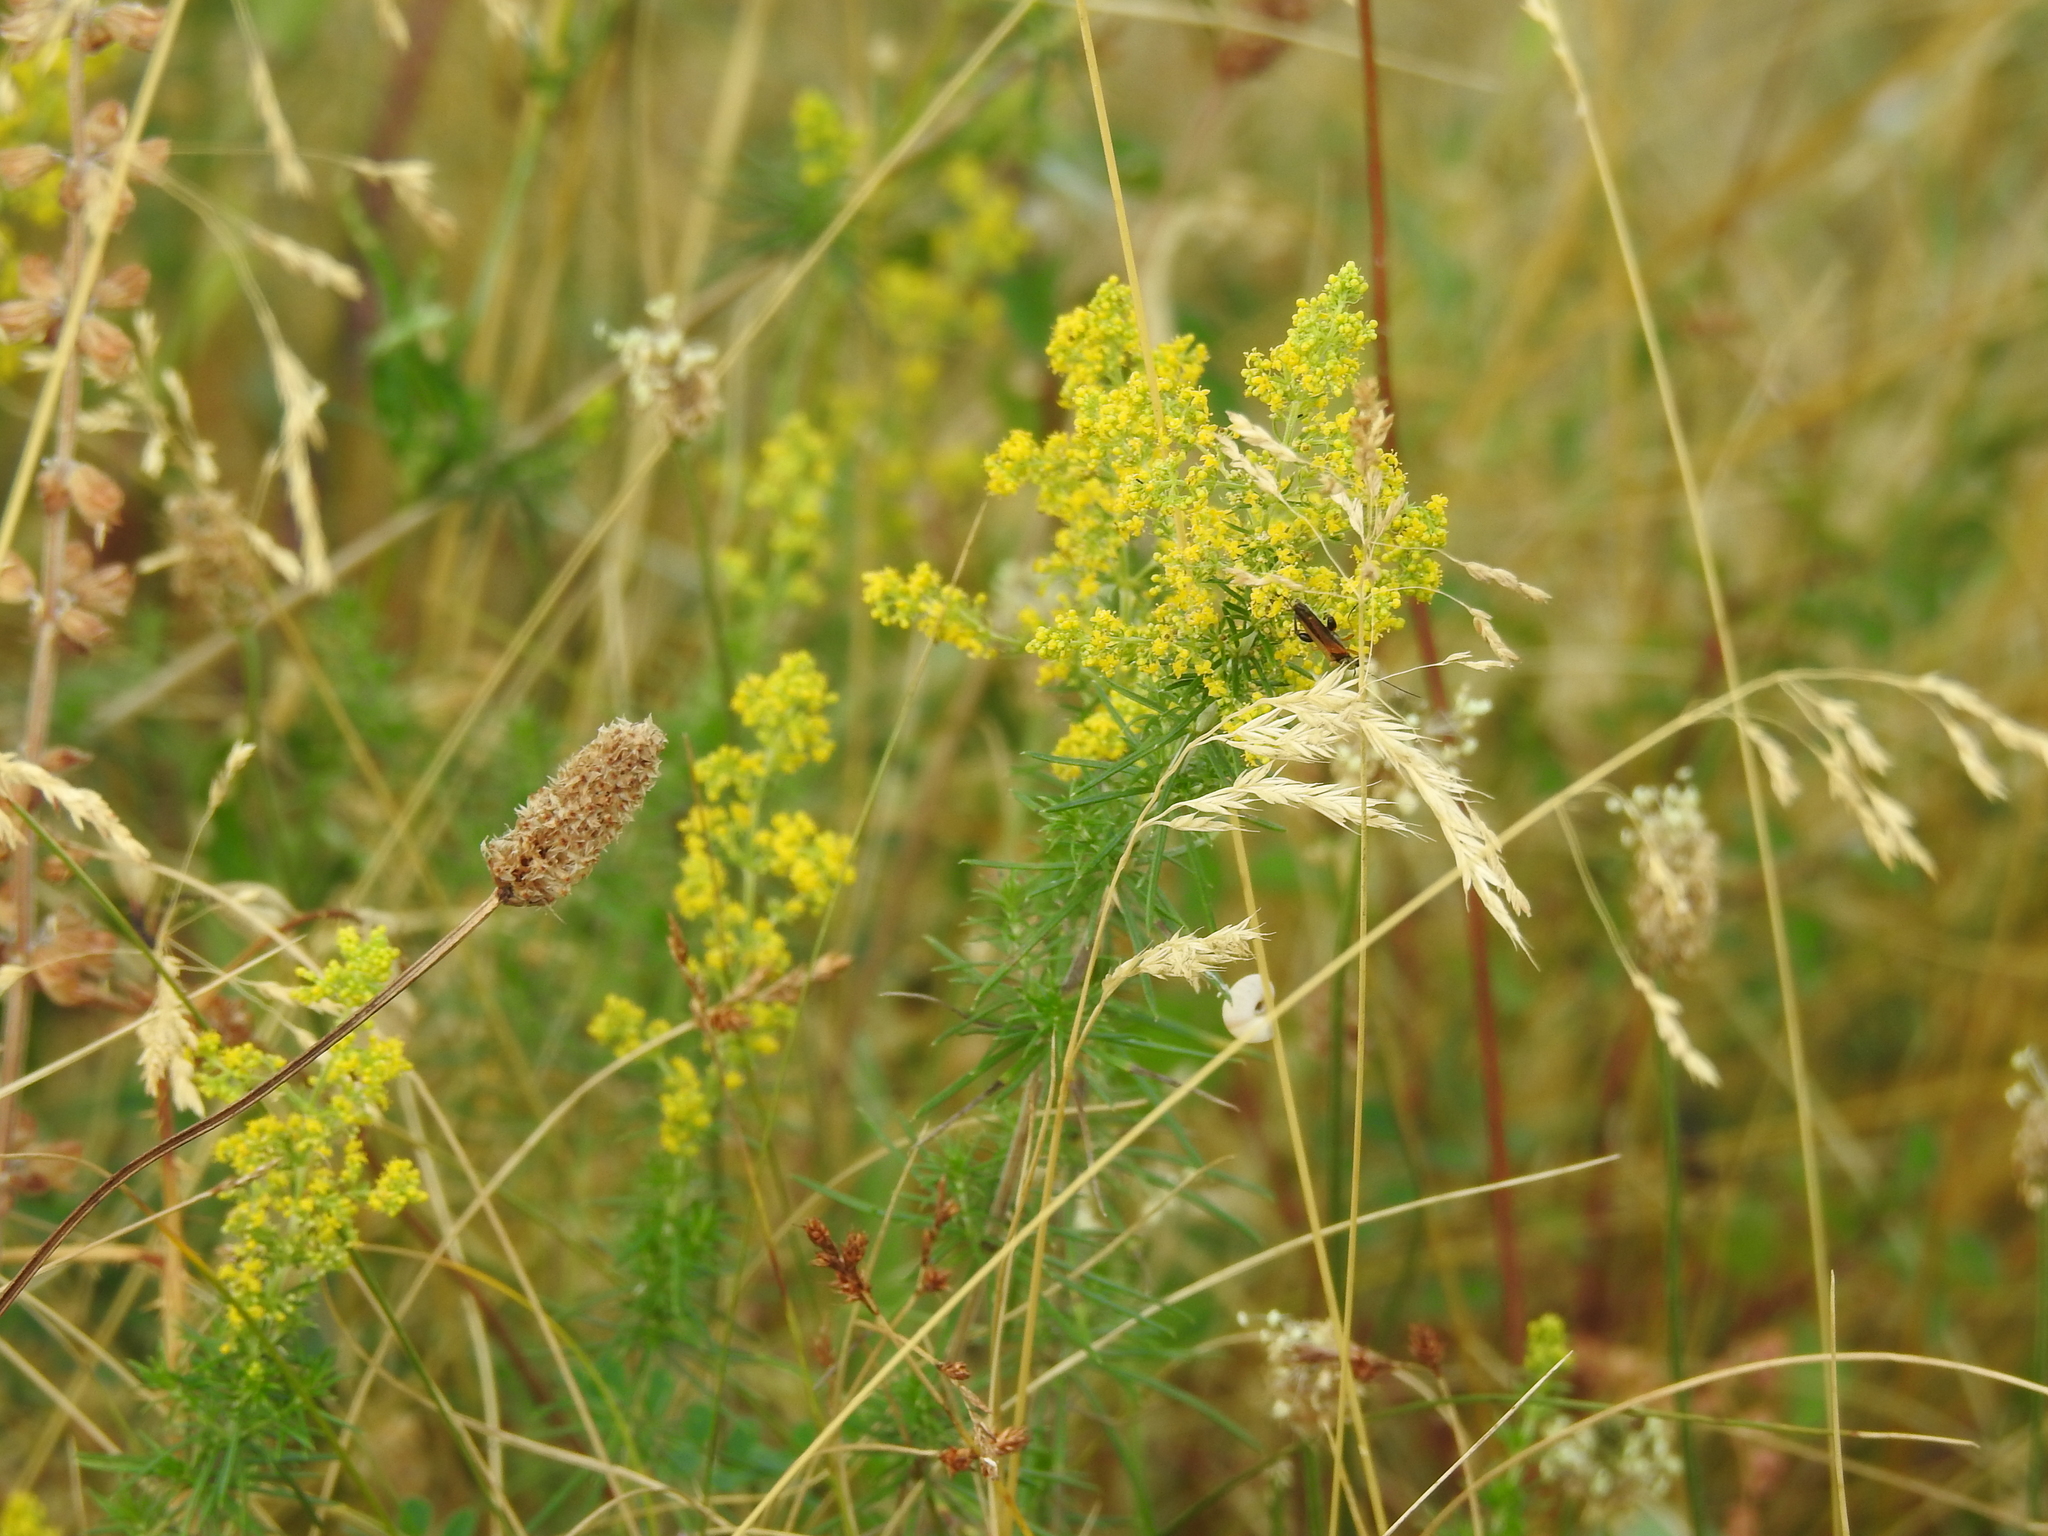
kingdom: Plantae
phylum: Tracheophyta
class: Magnoliopsida
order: Gentianales
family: Rubiaceae
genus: Galium
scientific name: Galium verum
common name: Lady's bedstraw
